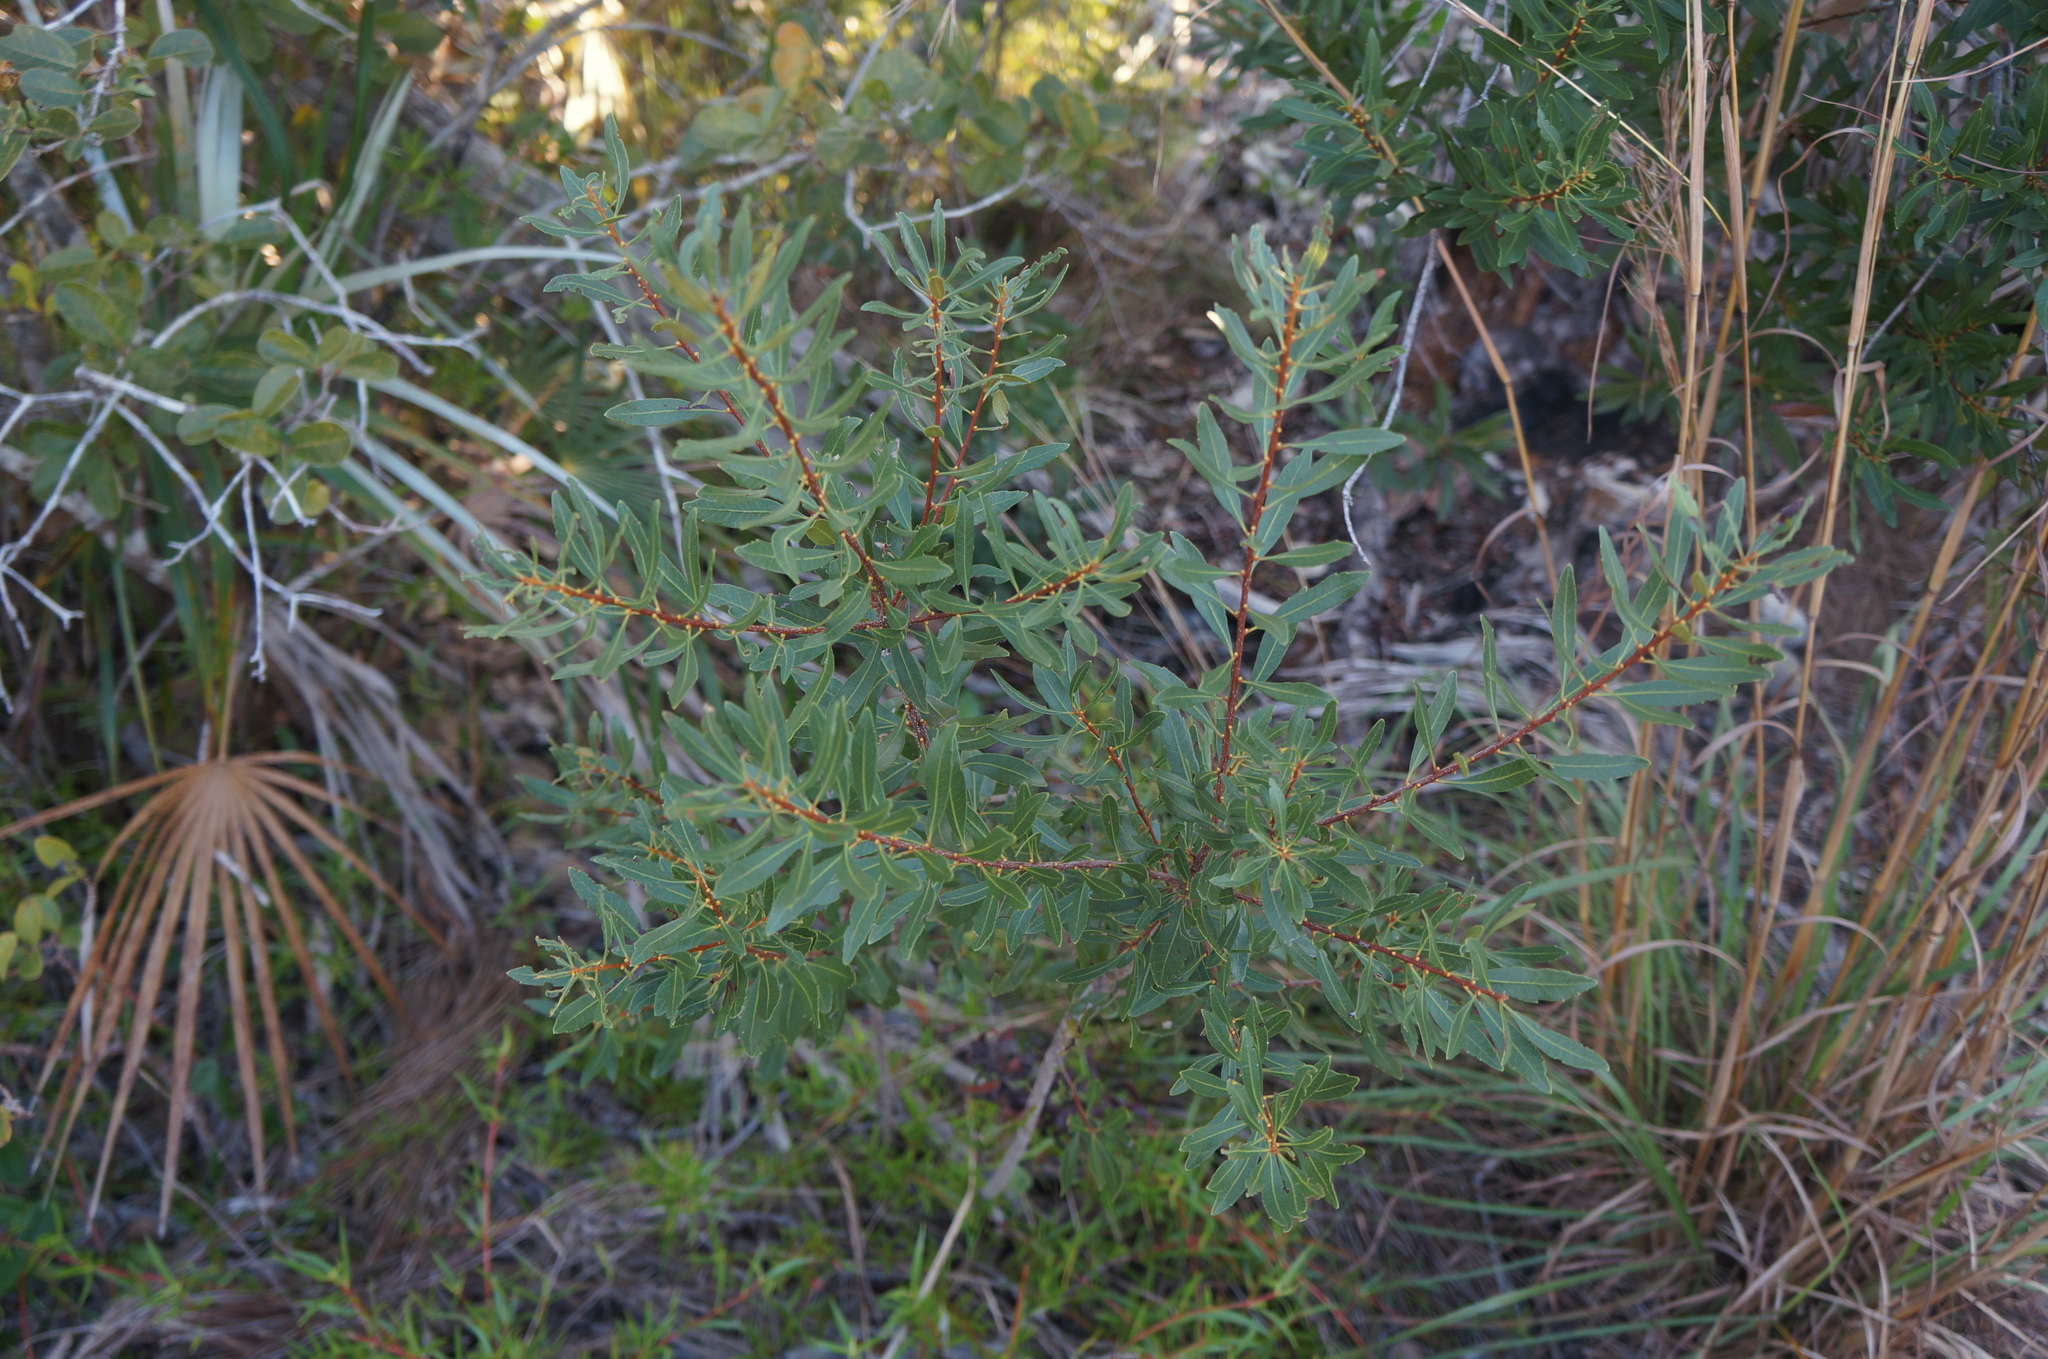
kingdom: Plantae
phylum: Tracheophyta
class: Magnoliopsida
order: Fagales
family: Myricaceae
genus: Morella
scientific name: Morella cerifera
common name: Wax myrtle
